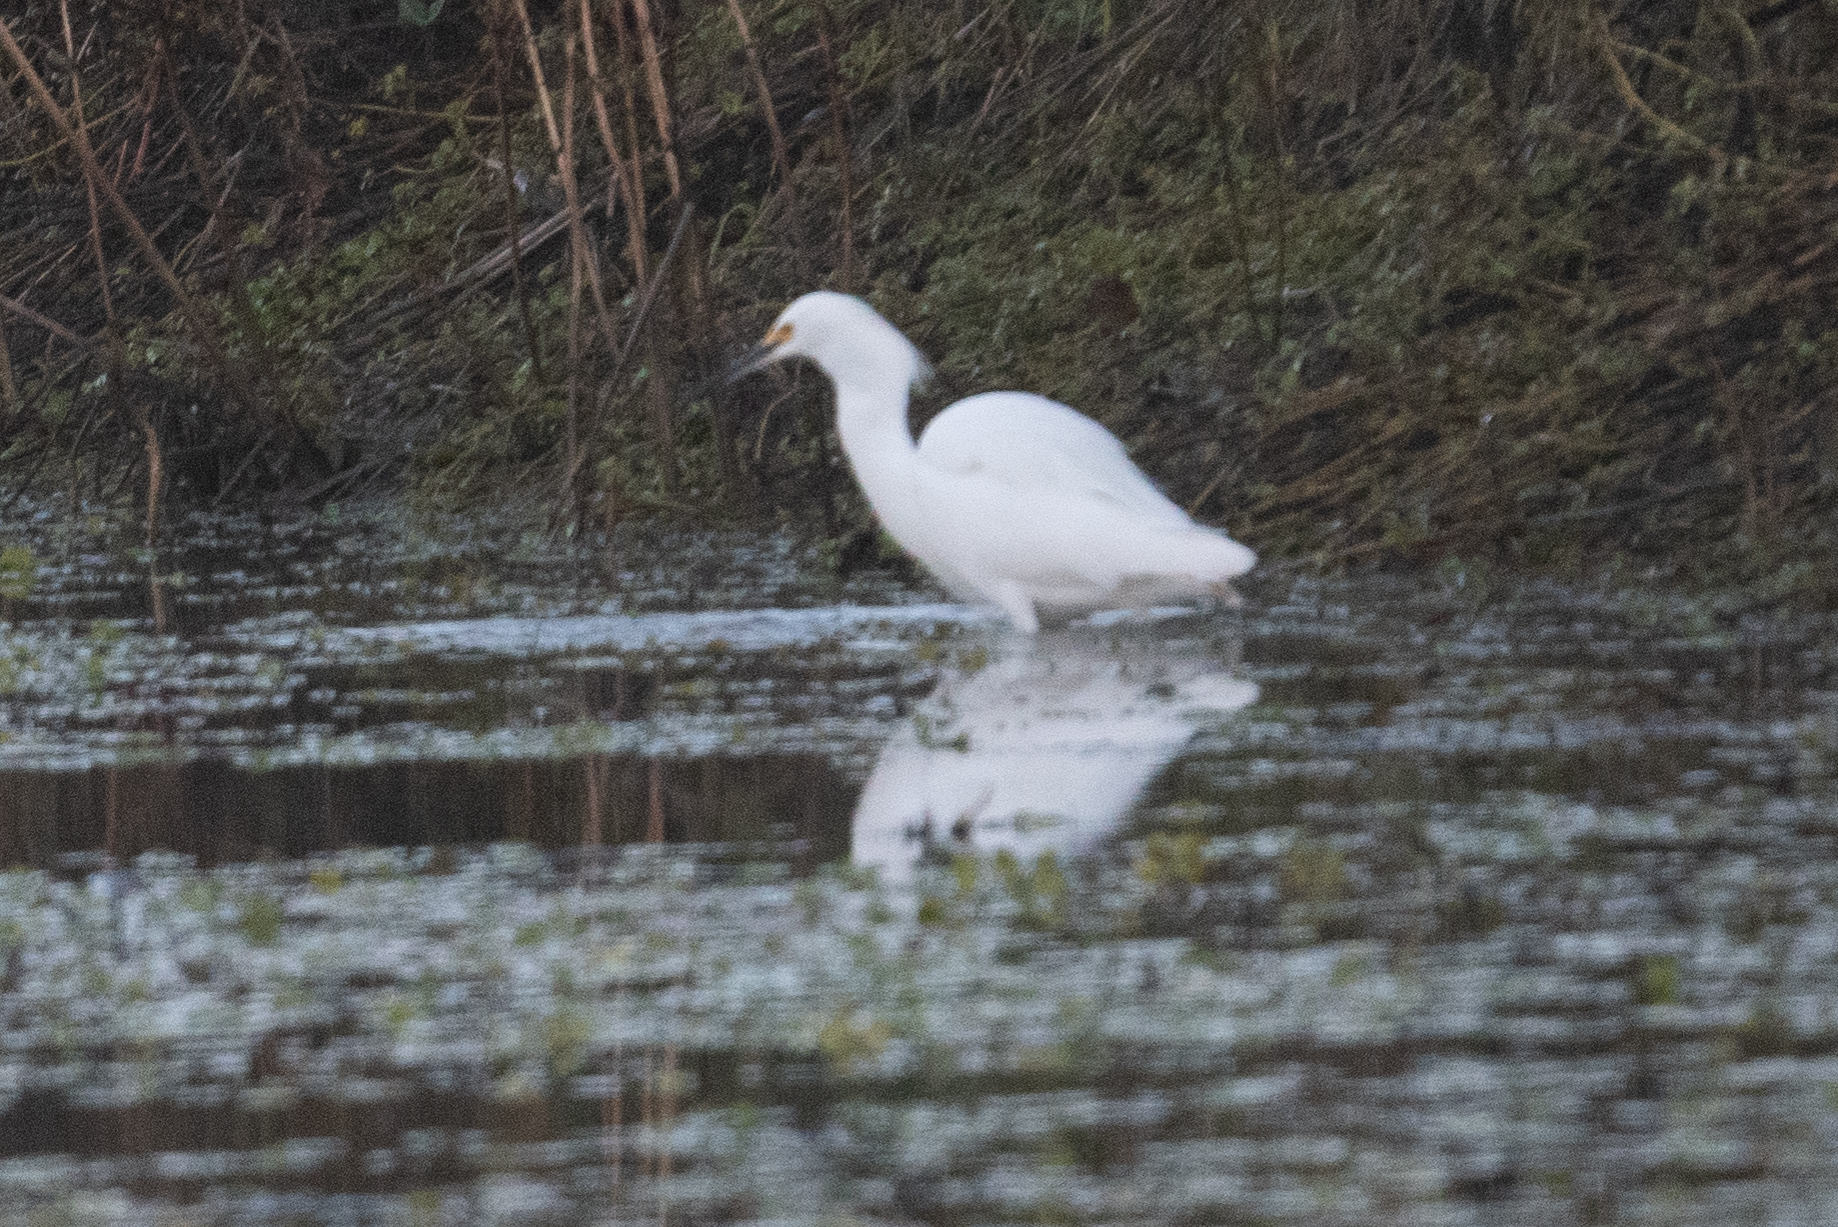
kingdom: Animalia
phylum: Chordata
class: Aves
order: Pelecaniformes
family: Ardeidae
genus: Egretta
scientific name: Egretta thula
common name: Snowy egret
